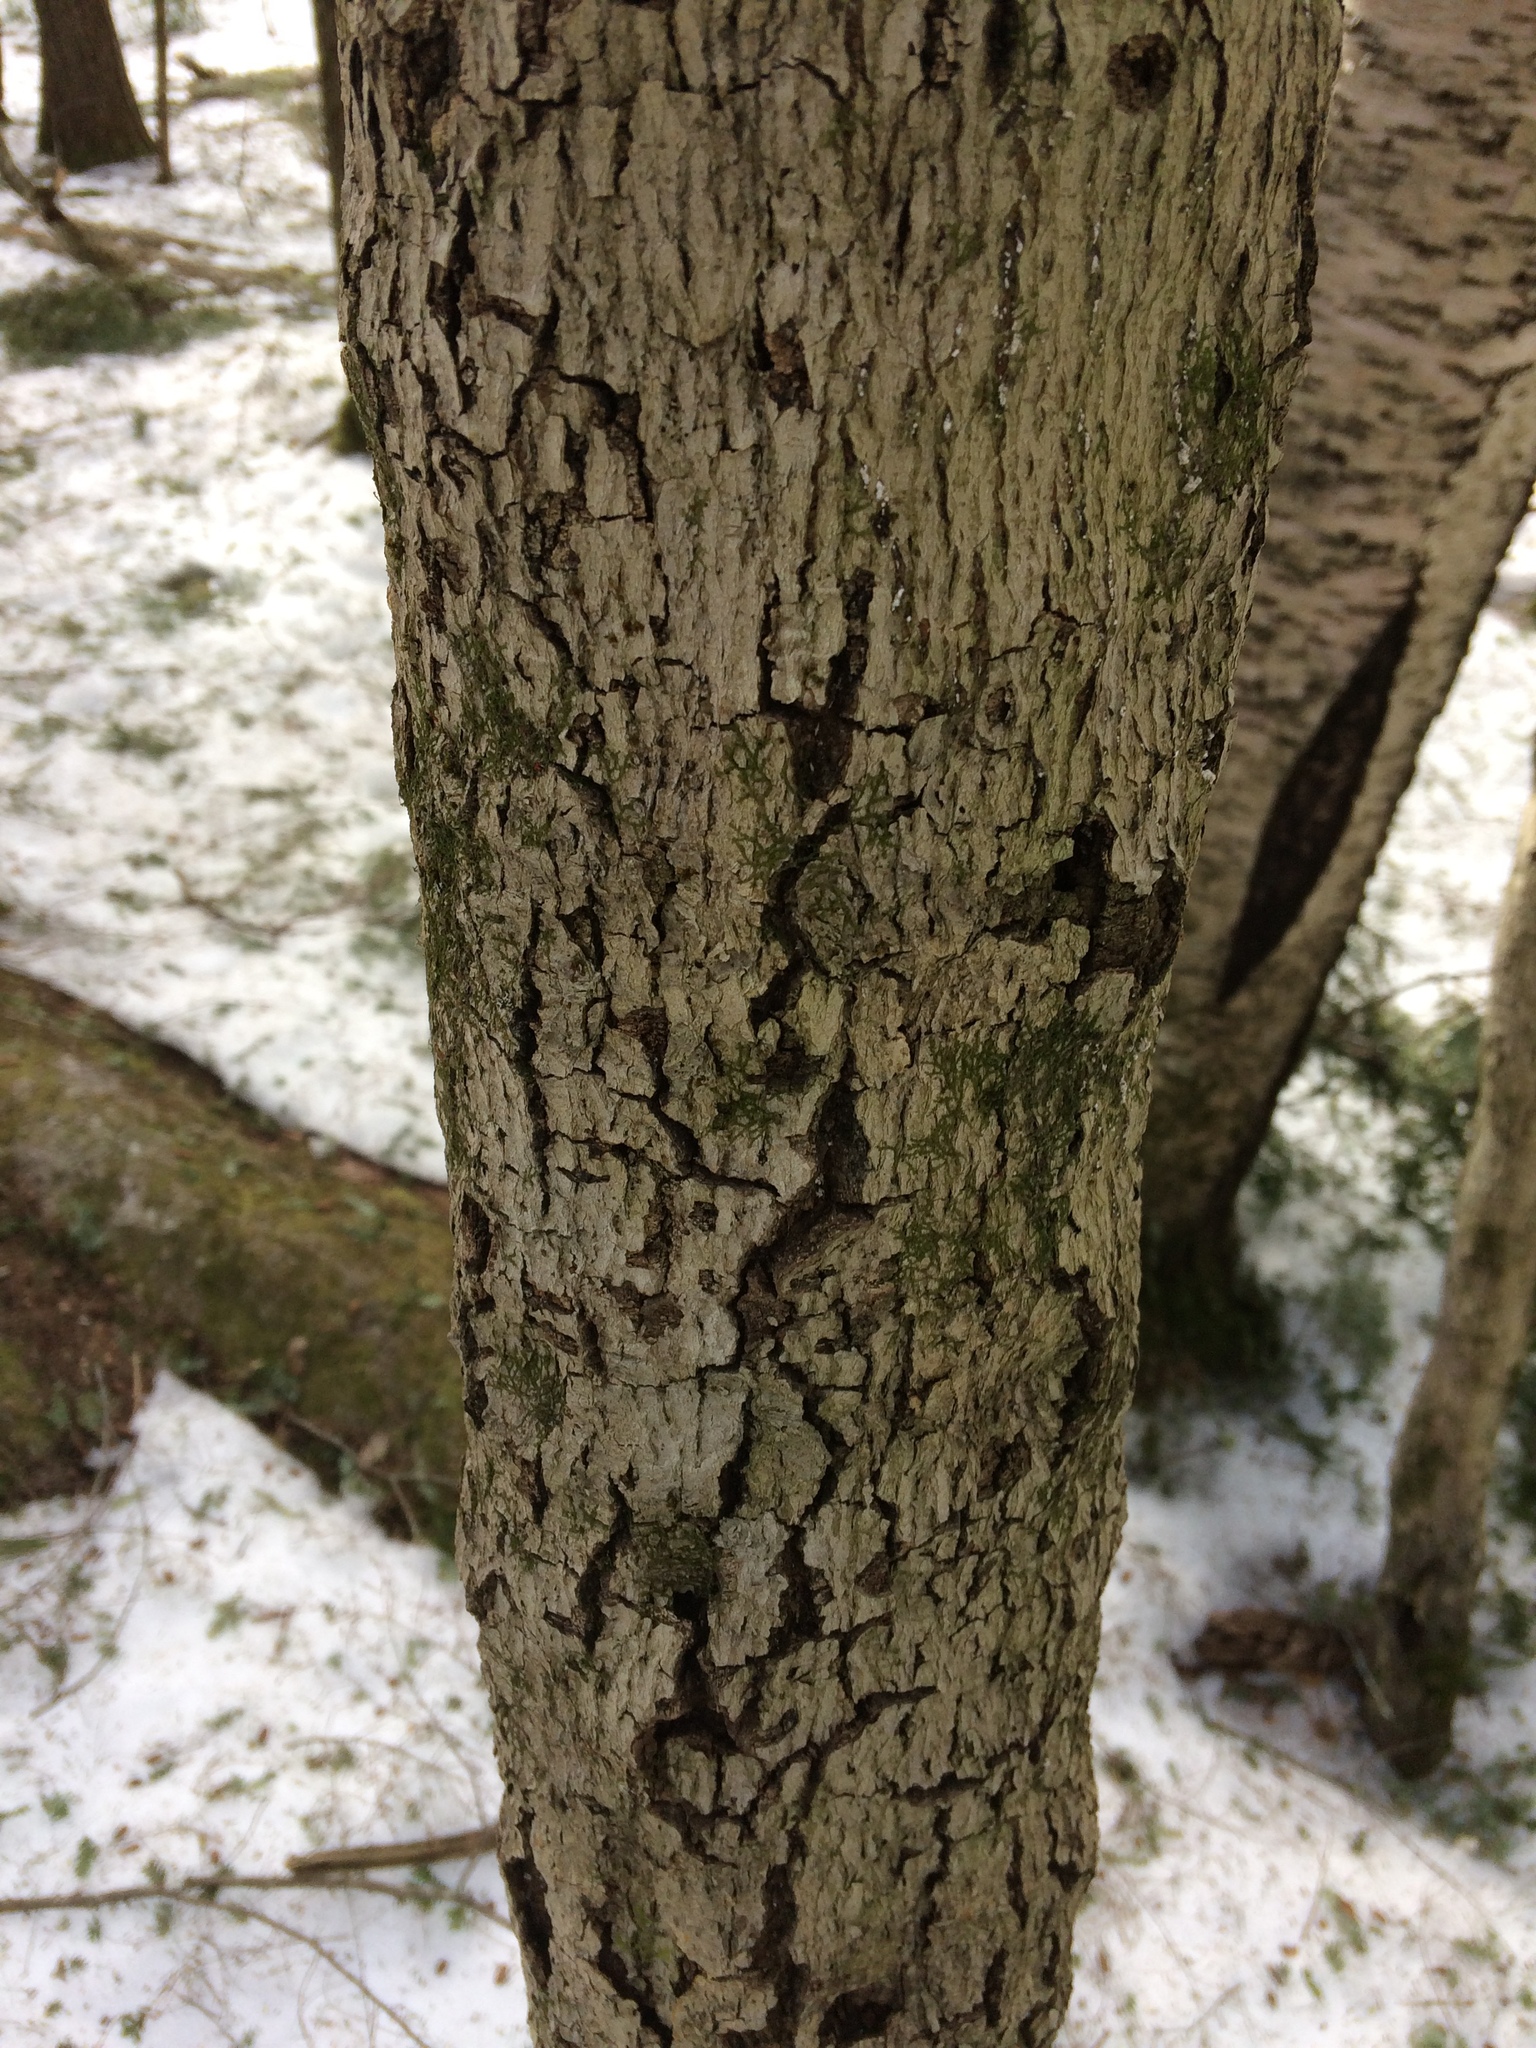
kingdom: Plantae
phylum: Tracheophyta
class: Magnoliopsida
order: Fagales
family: Fagaceae
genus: Fagus
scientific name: Fagus grandifolia
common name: American beech
